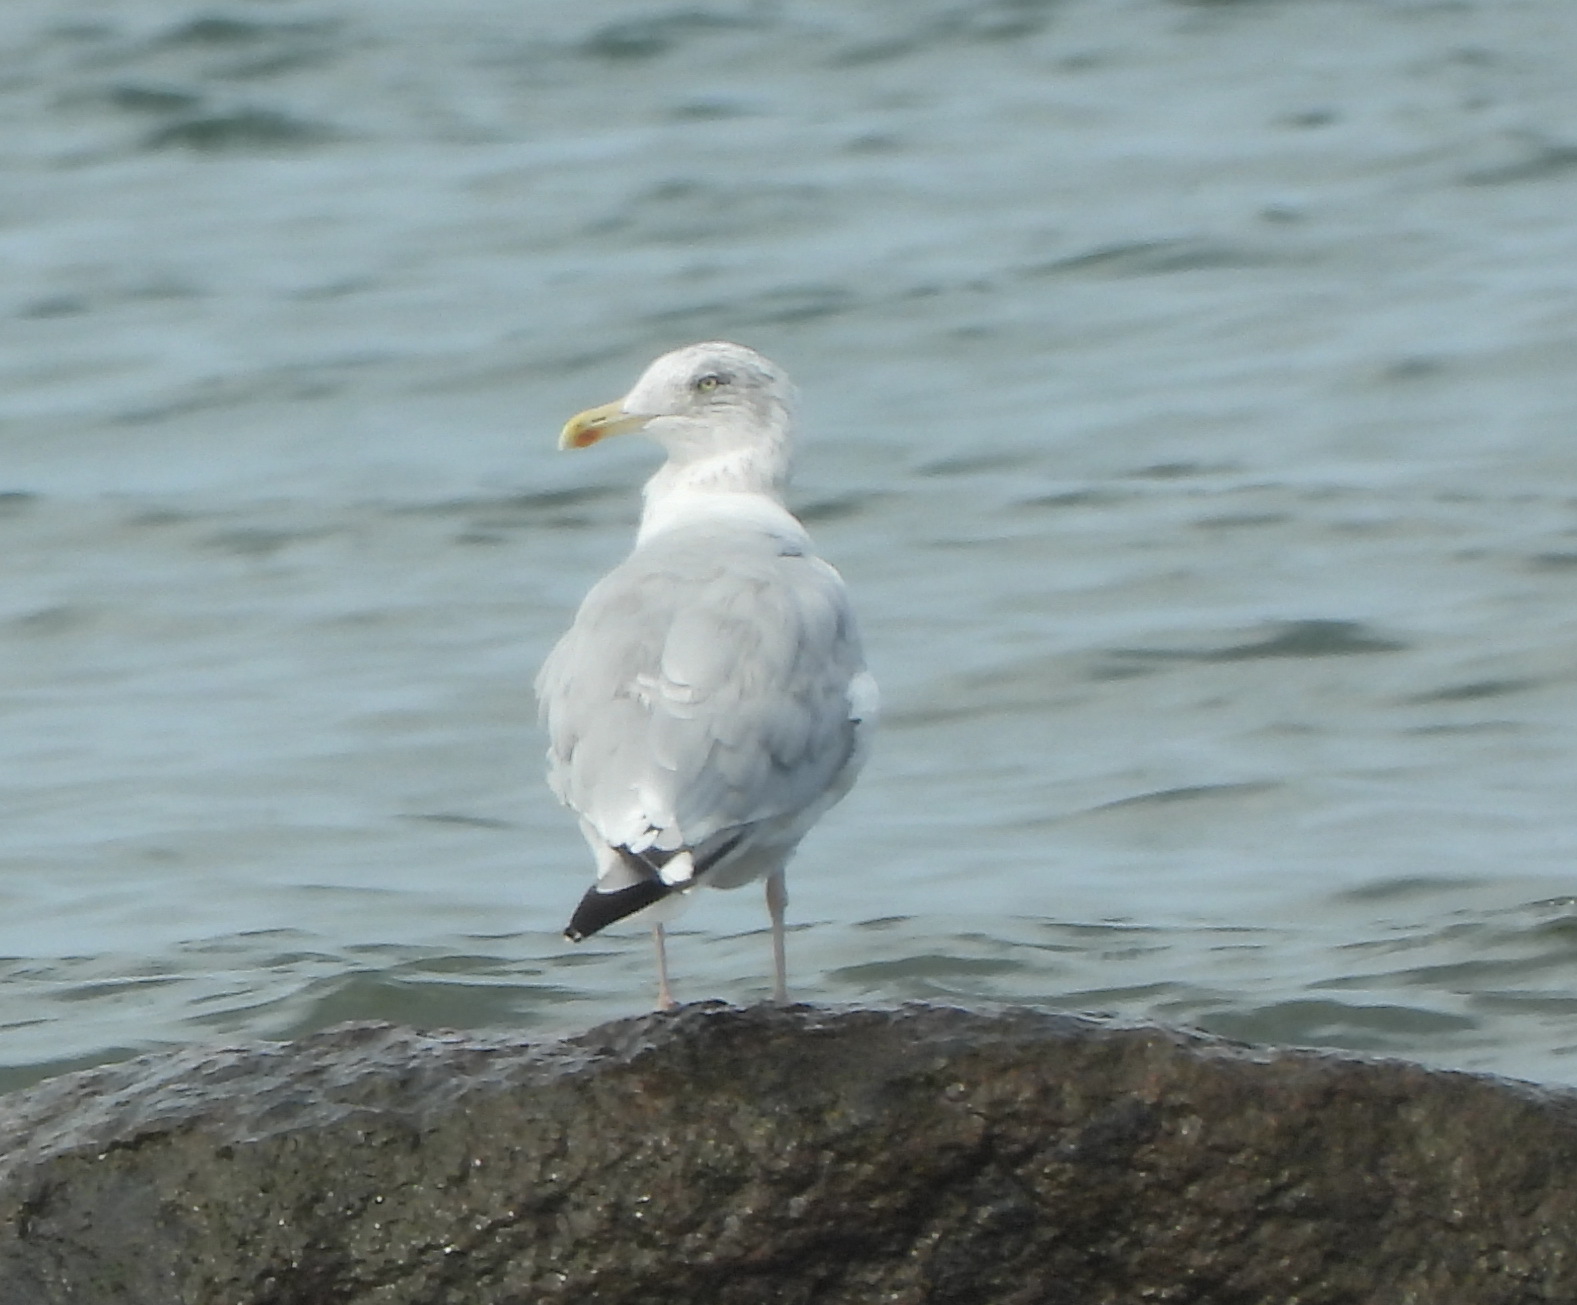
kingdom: Animalia
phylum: Chordata
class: Aves
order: Charadriiformes
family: Laridae
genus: Larus
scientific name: Larus argentatus
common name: Herring gull
